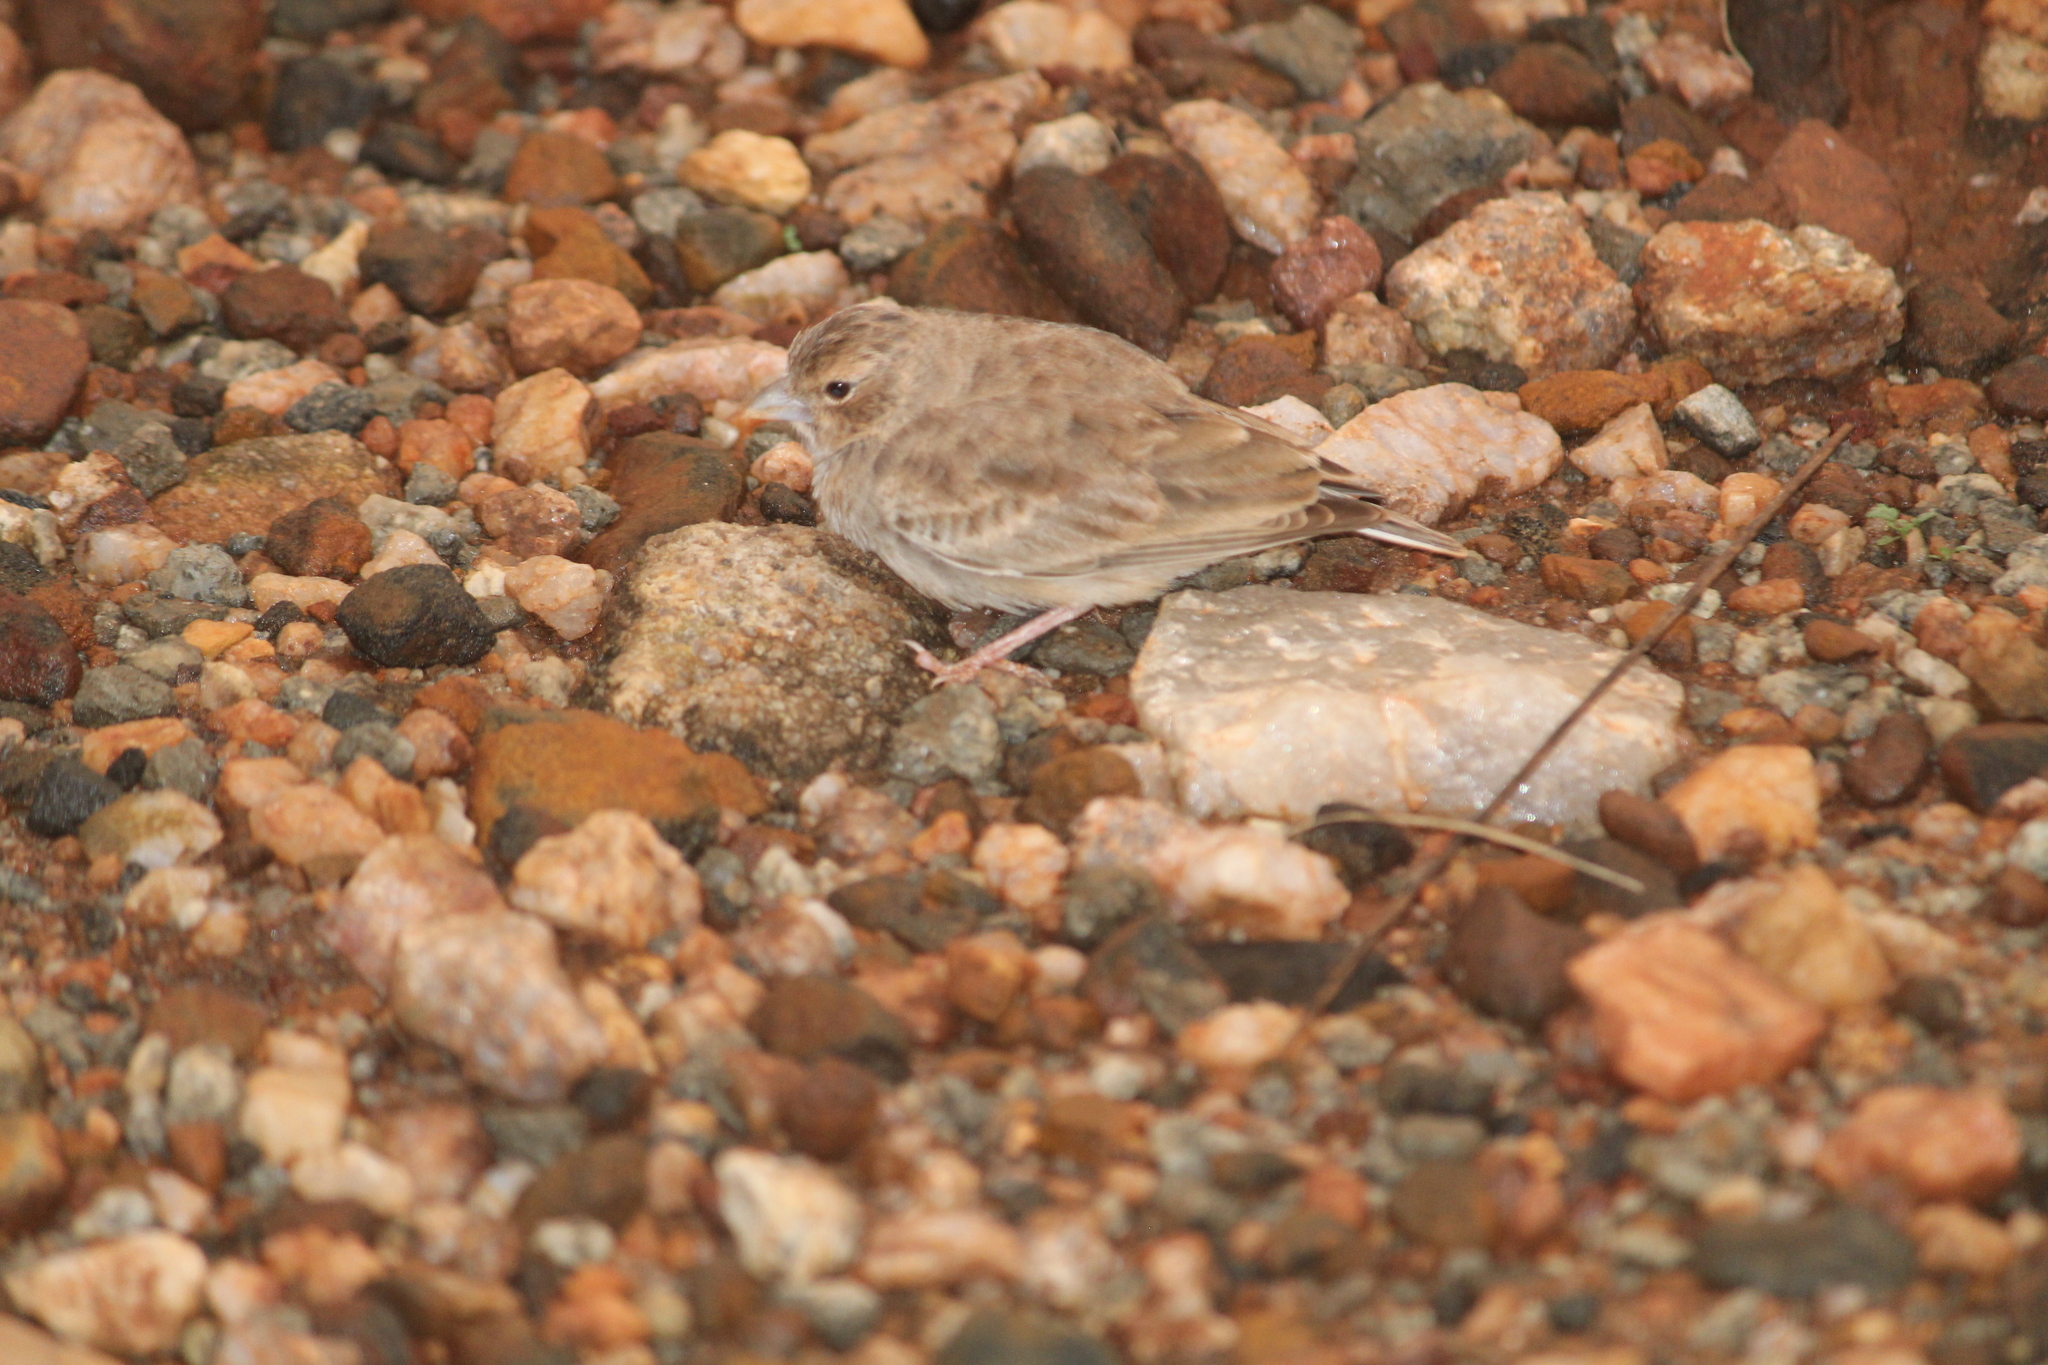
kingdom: Animalia
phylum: Chordata
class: Aves
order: Passeriformes
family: Alaudidae
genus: Eremopterix
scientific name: Eremopterix griseus
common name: Ashy-crowned sparrow-lark
